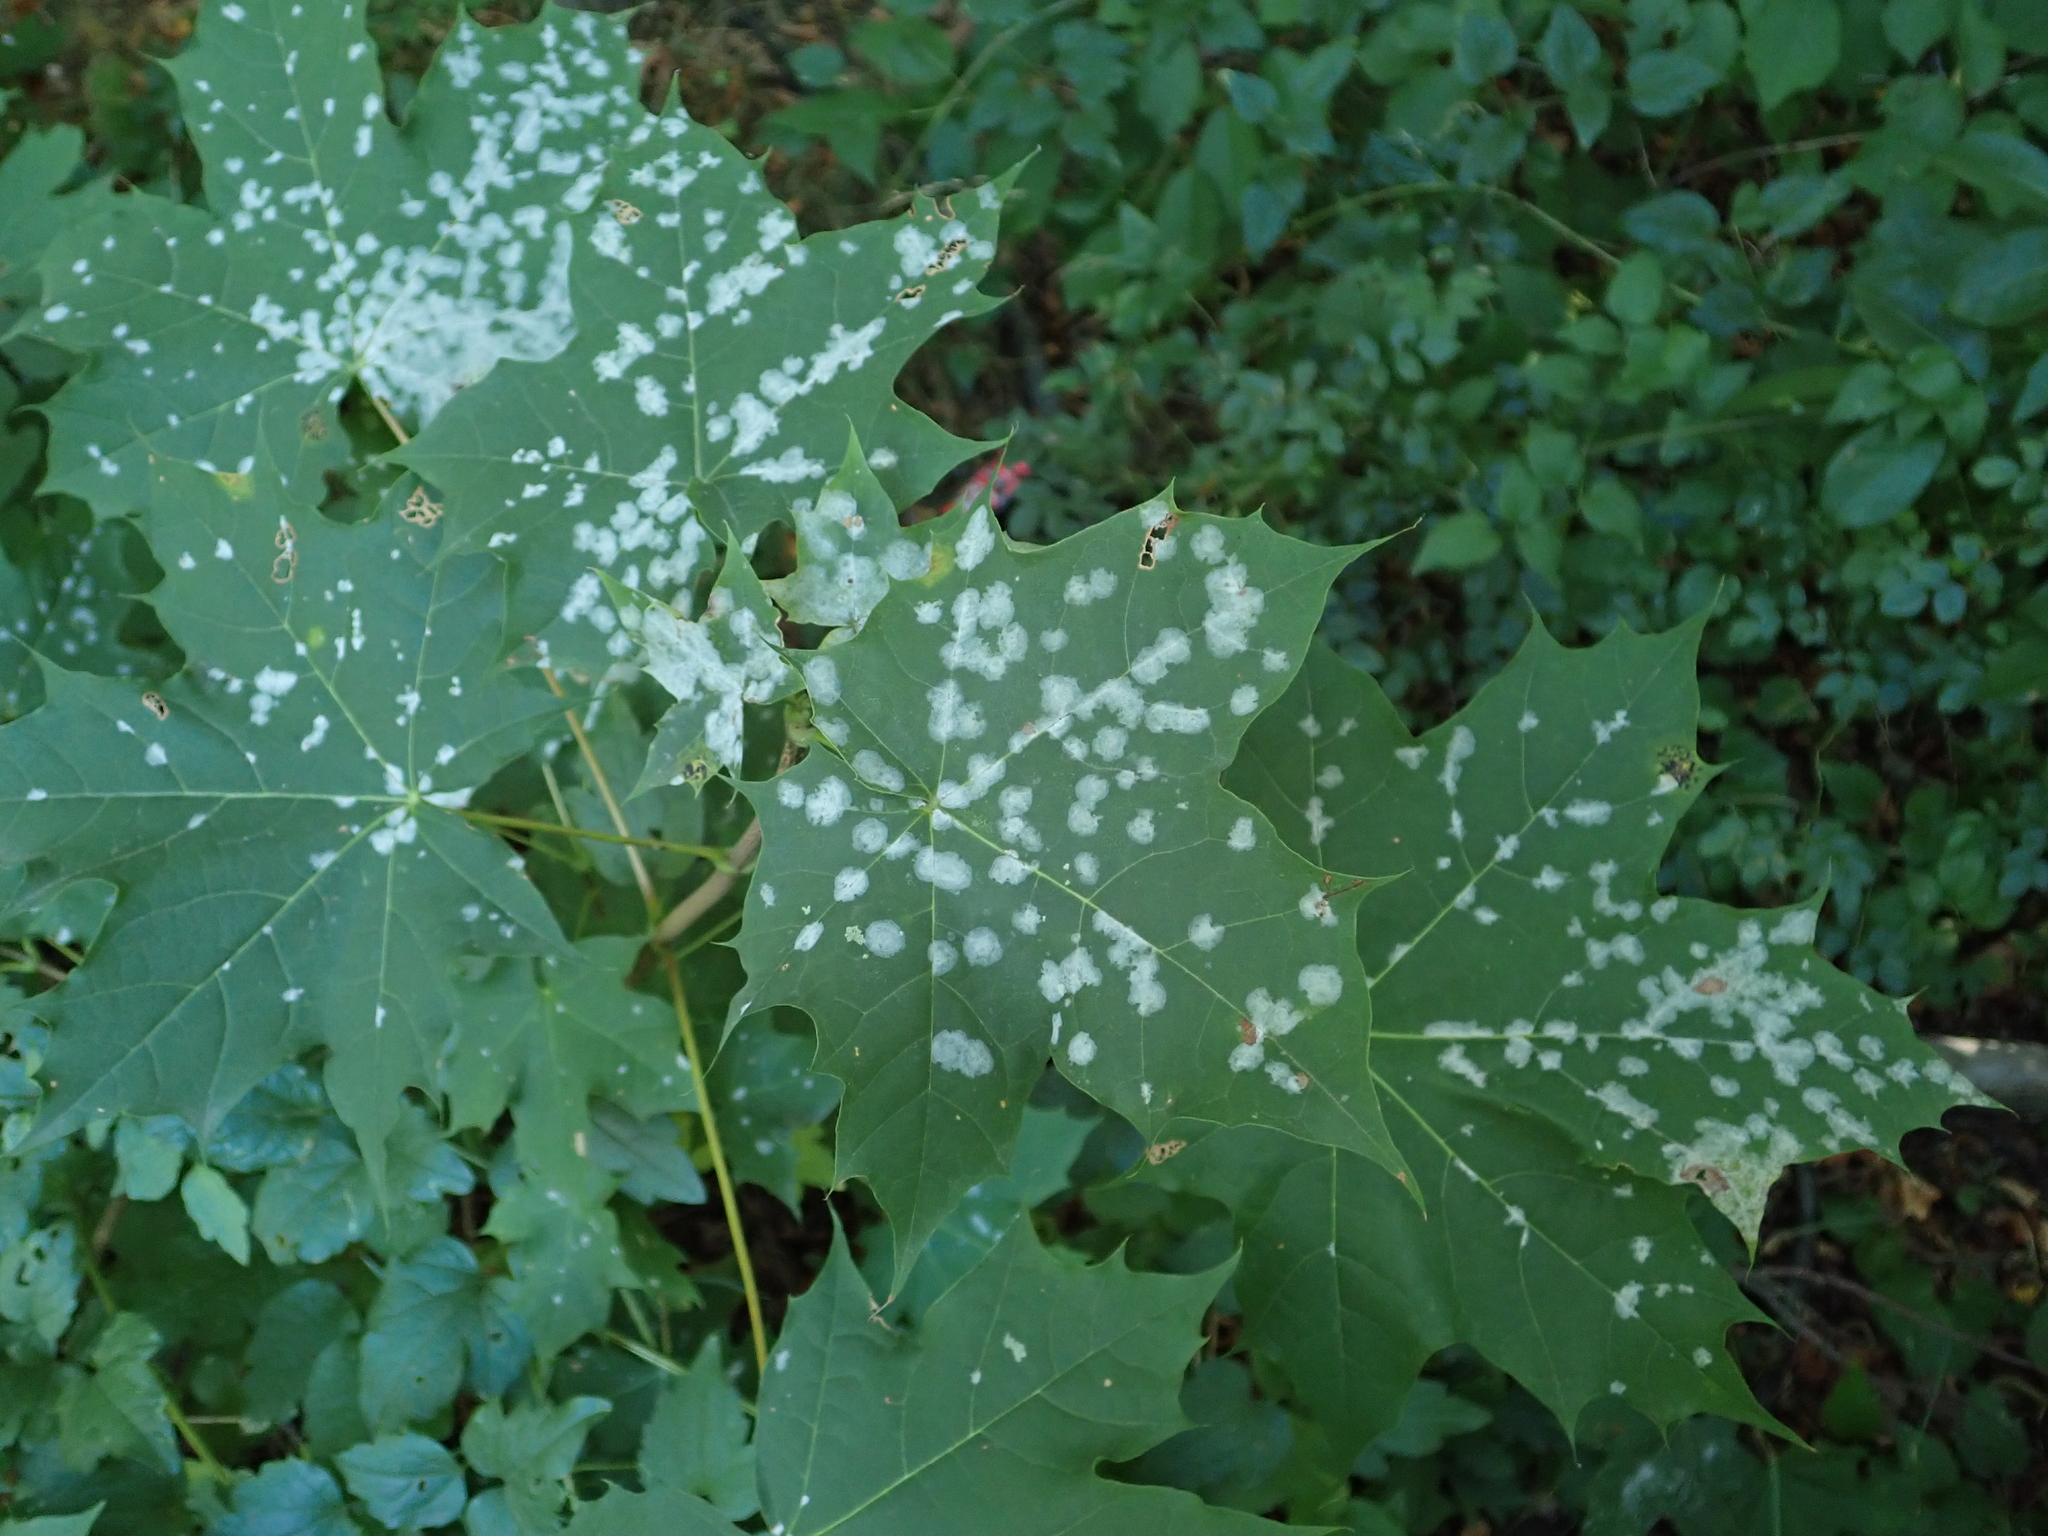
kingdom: Plantae
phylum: Tracheophyta
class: Magnoliopsida
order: Sapindales
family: Sapindaceae
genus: Acer
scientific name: Acer platanoides
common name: Norway maple
